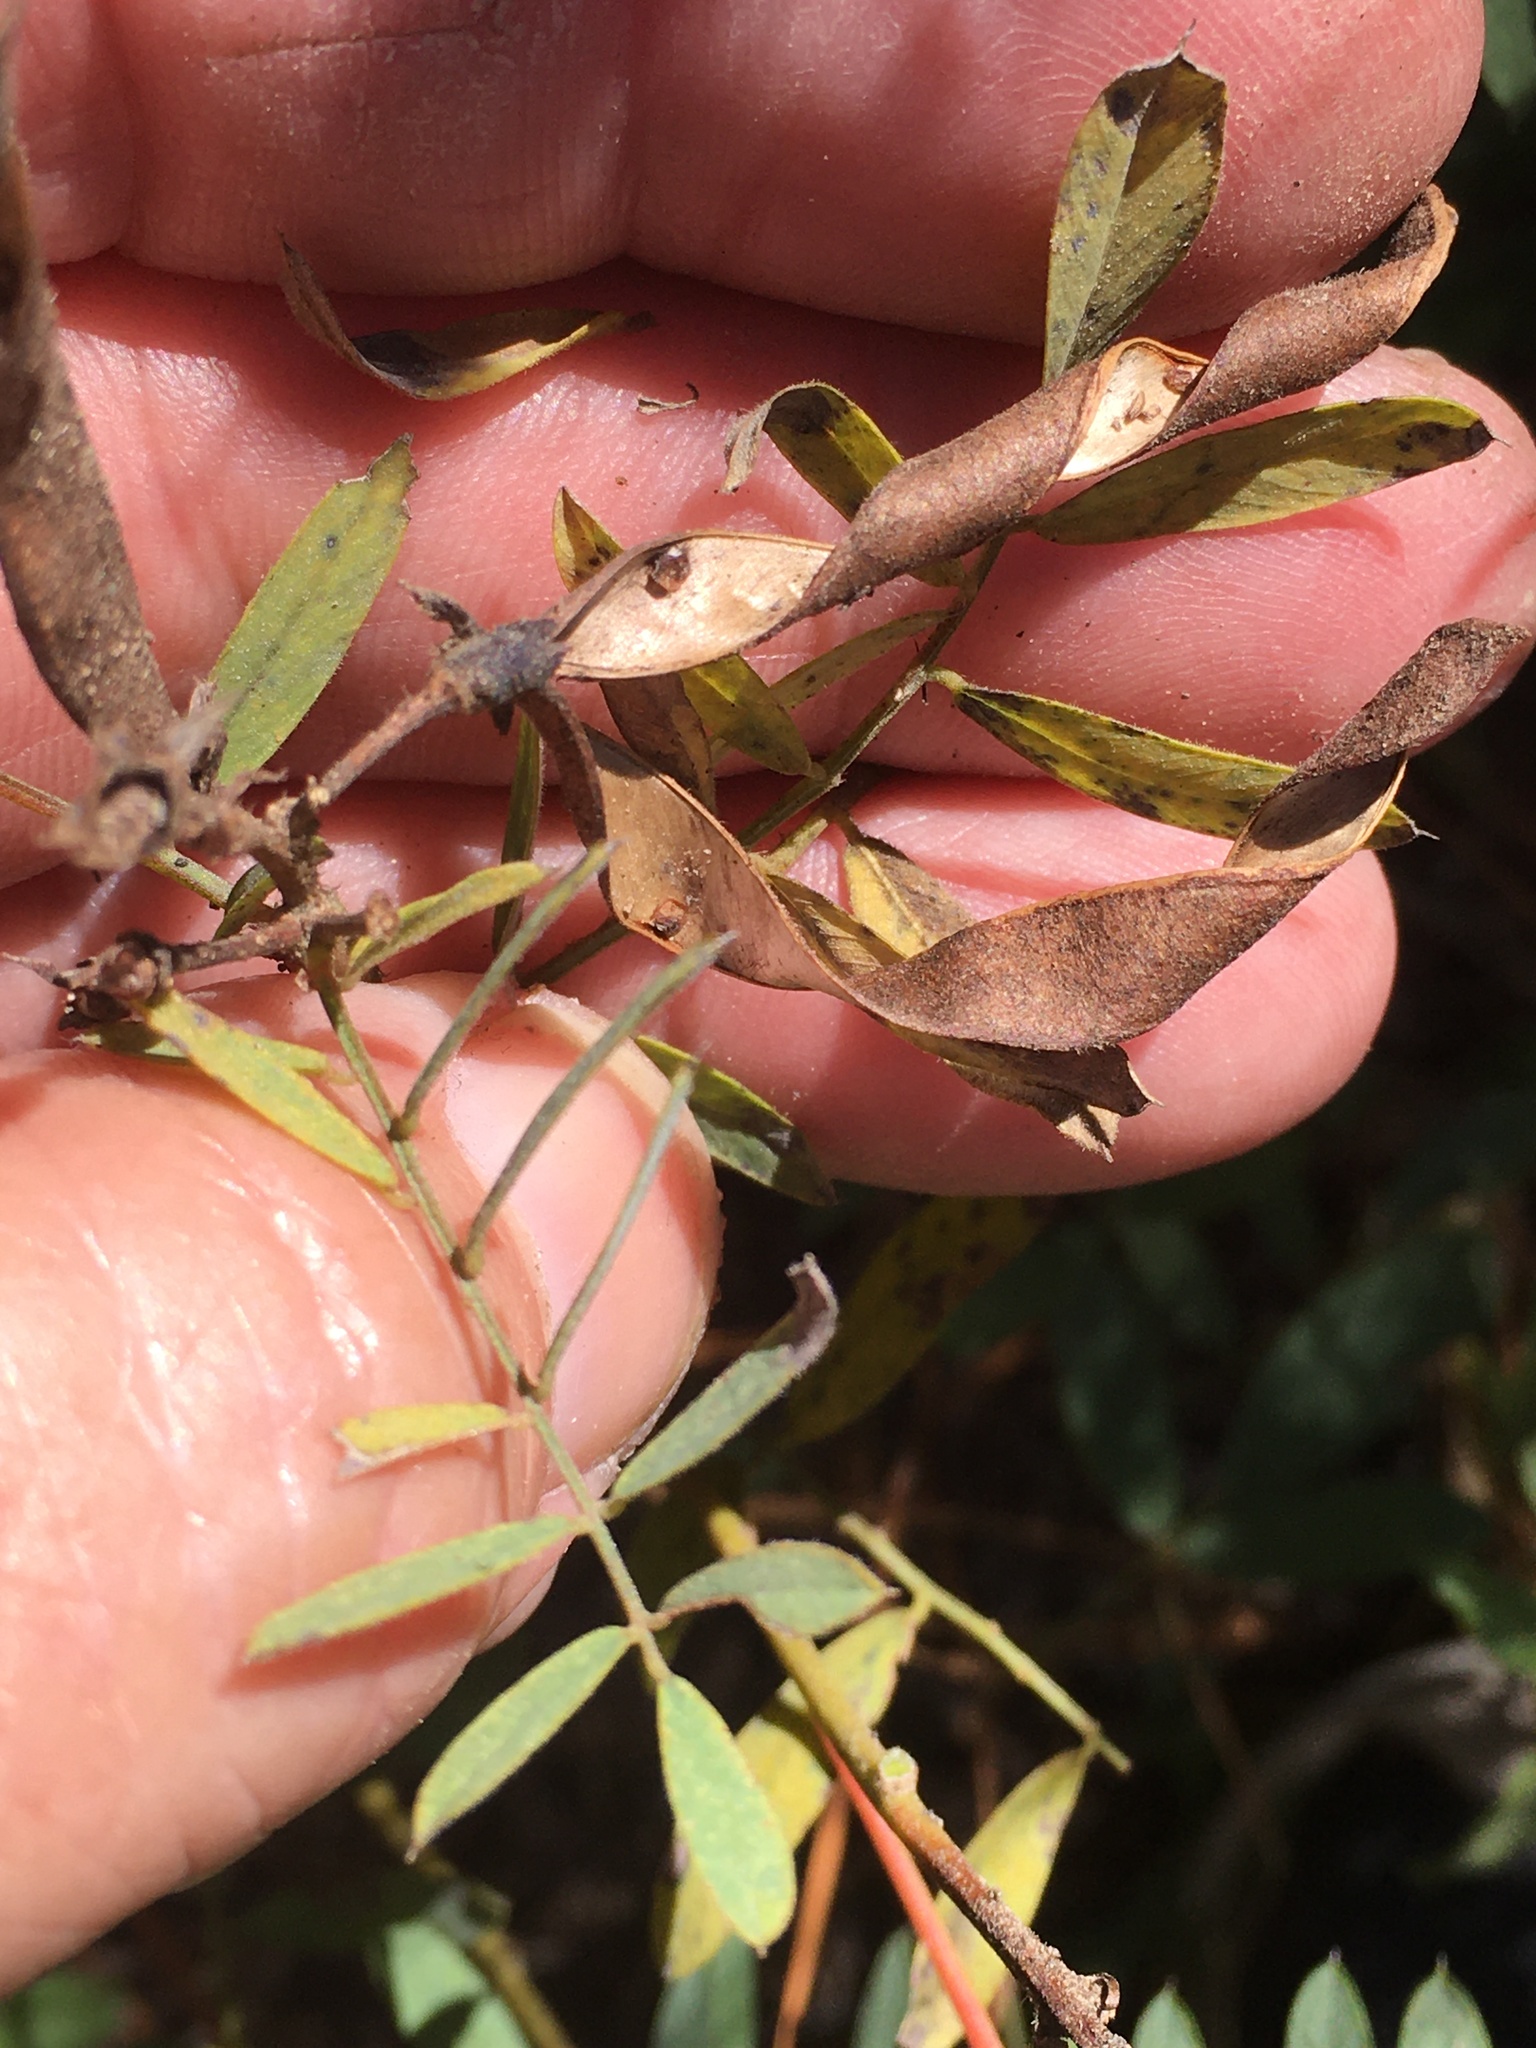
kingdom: Plantae
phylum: Tracheophyta
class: Magnoliopsida
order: Fabales
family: Fabaceae
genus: Tephrosia
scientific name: Tephrosia virginiana
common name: Rabbit-pea
